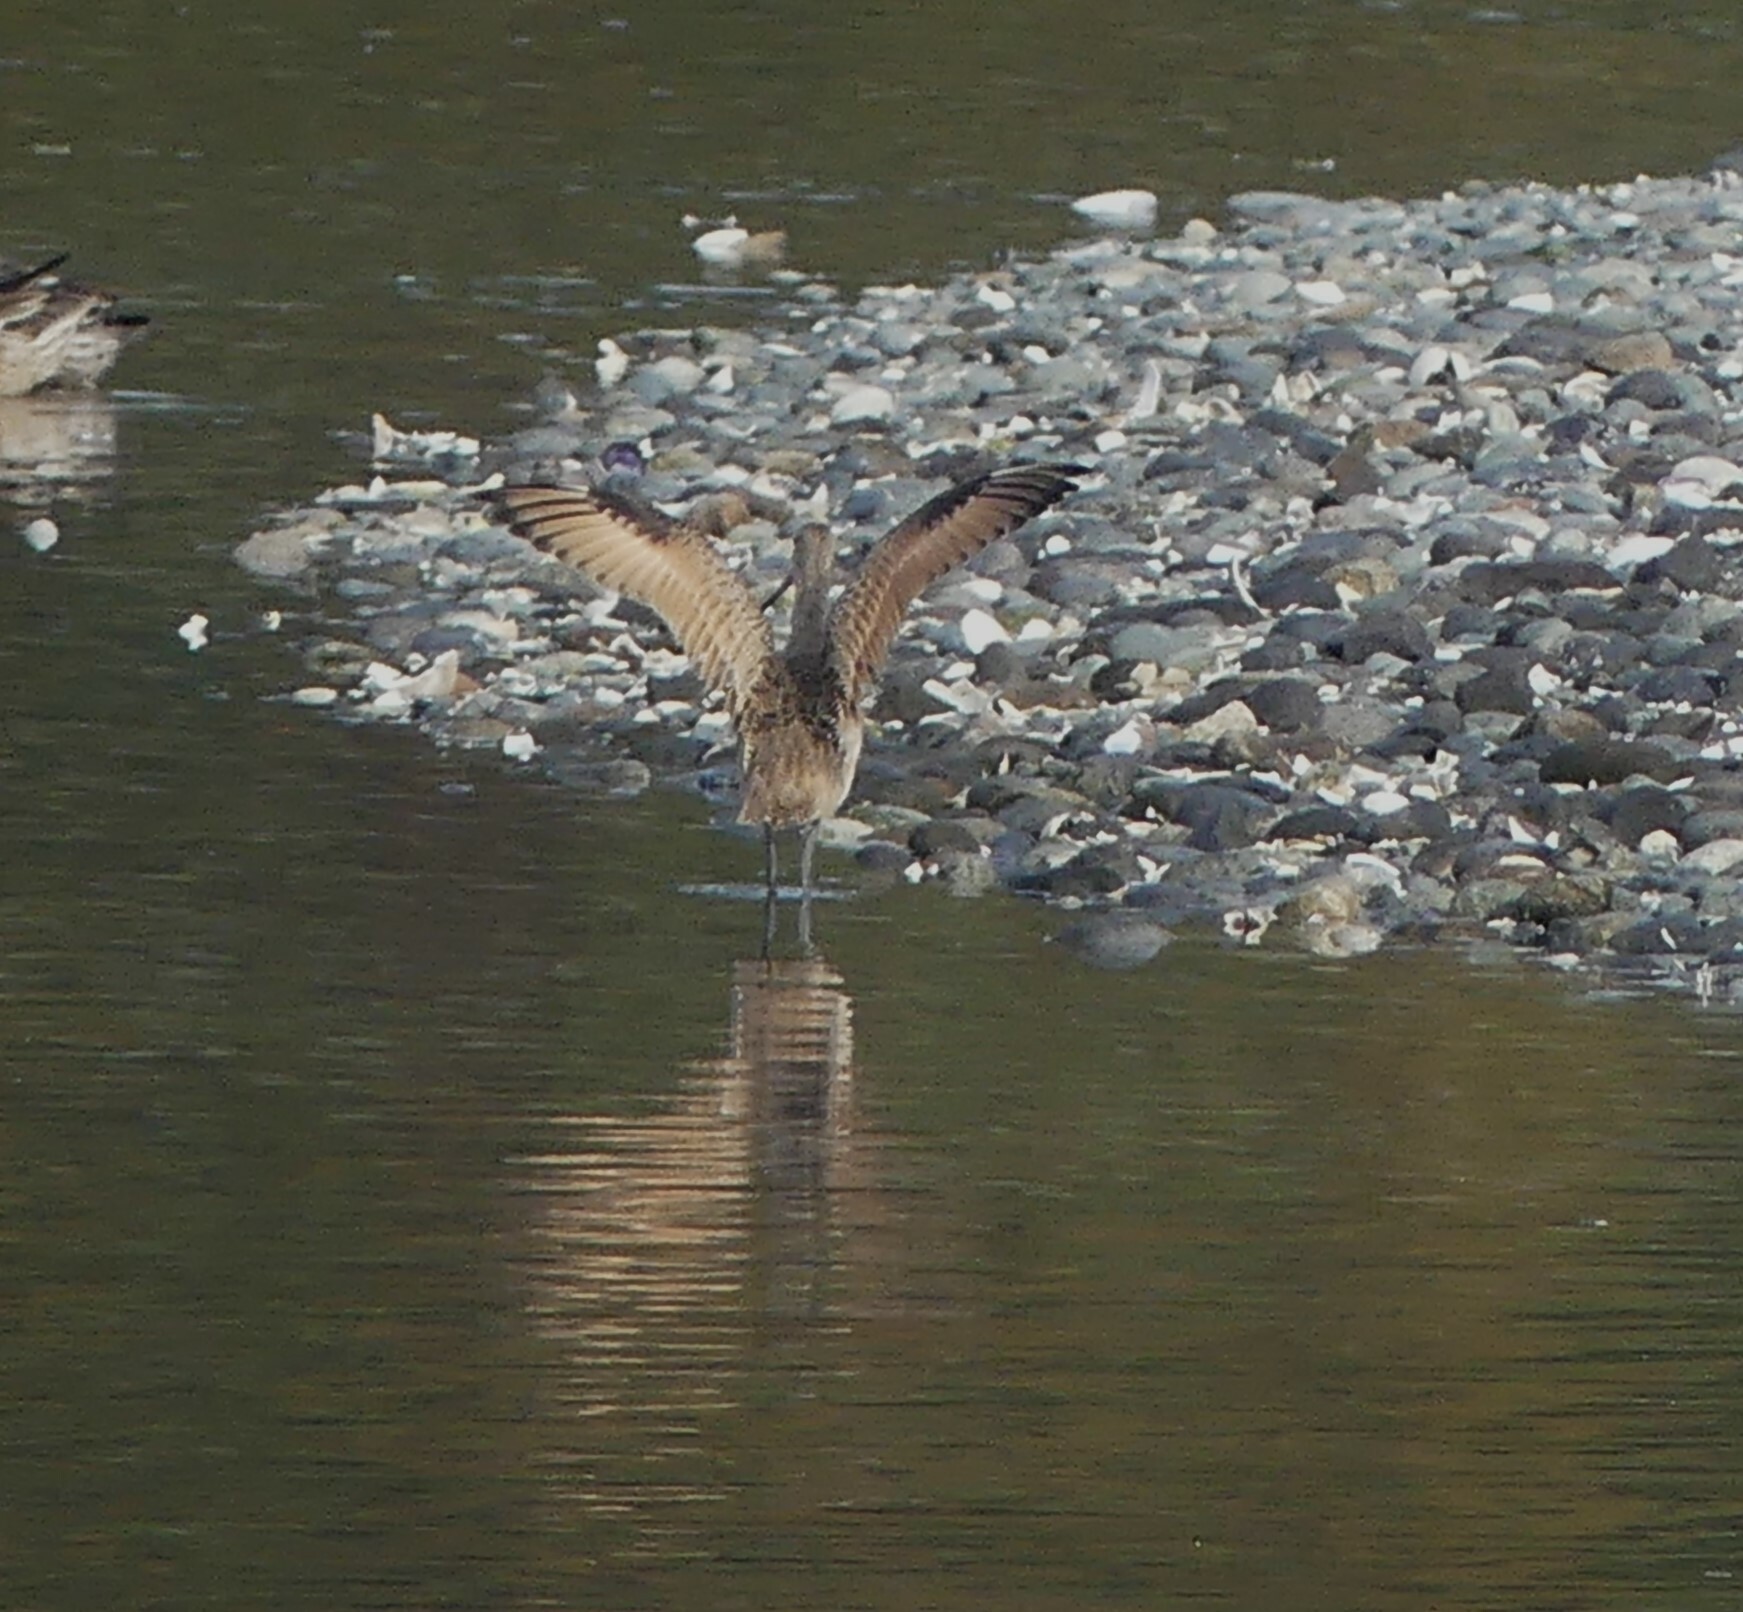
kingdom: Animalia
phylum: Chordata
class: Aves
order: Charadriiformes
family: Scolopacidae
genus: Limosa
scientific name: Limosa fedoa
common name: Marbled godwit
